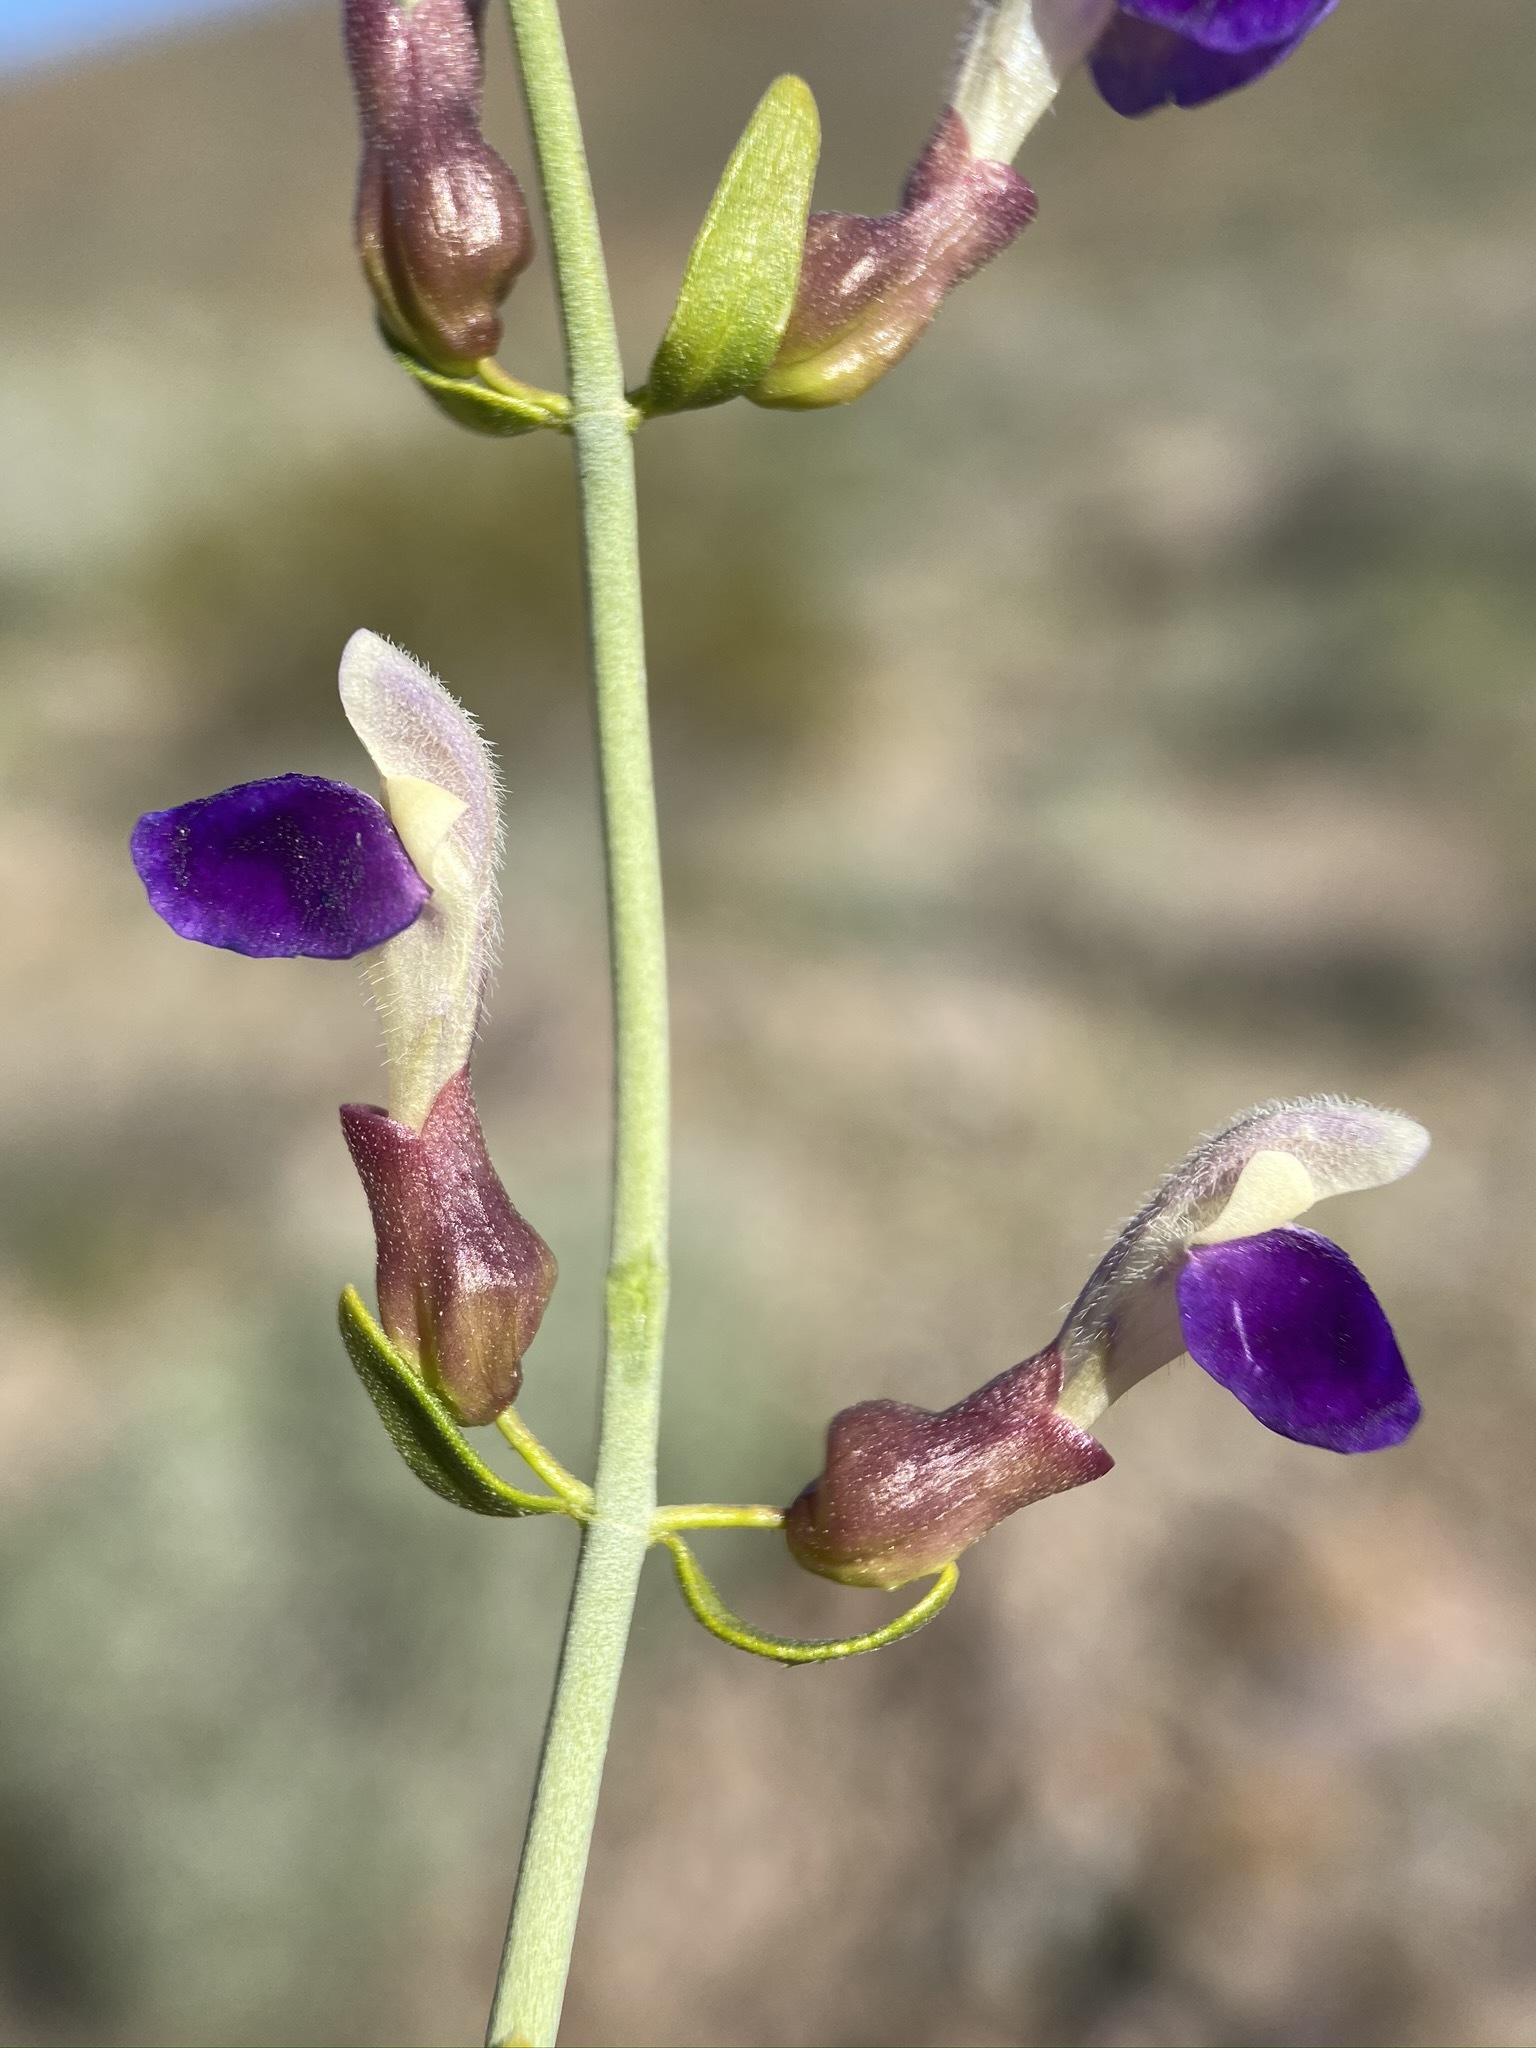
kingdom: Plantae
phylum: Tracheophyta
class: Magnoliopsida
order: Lamiales
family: Lamiaceae
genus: Scutellaria
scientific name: Scutellaria mexicana
